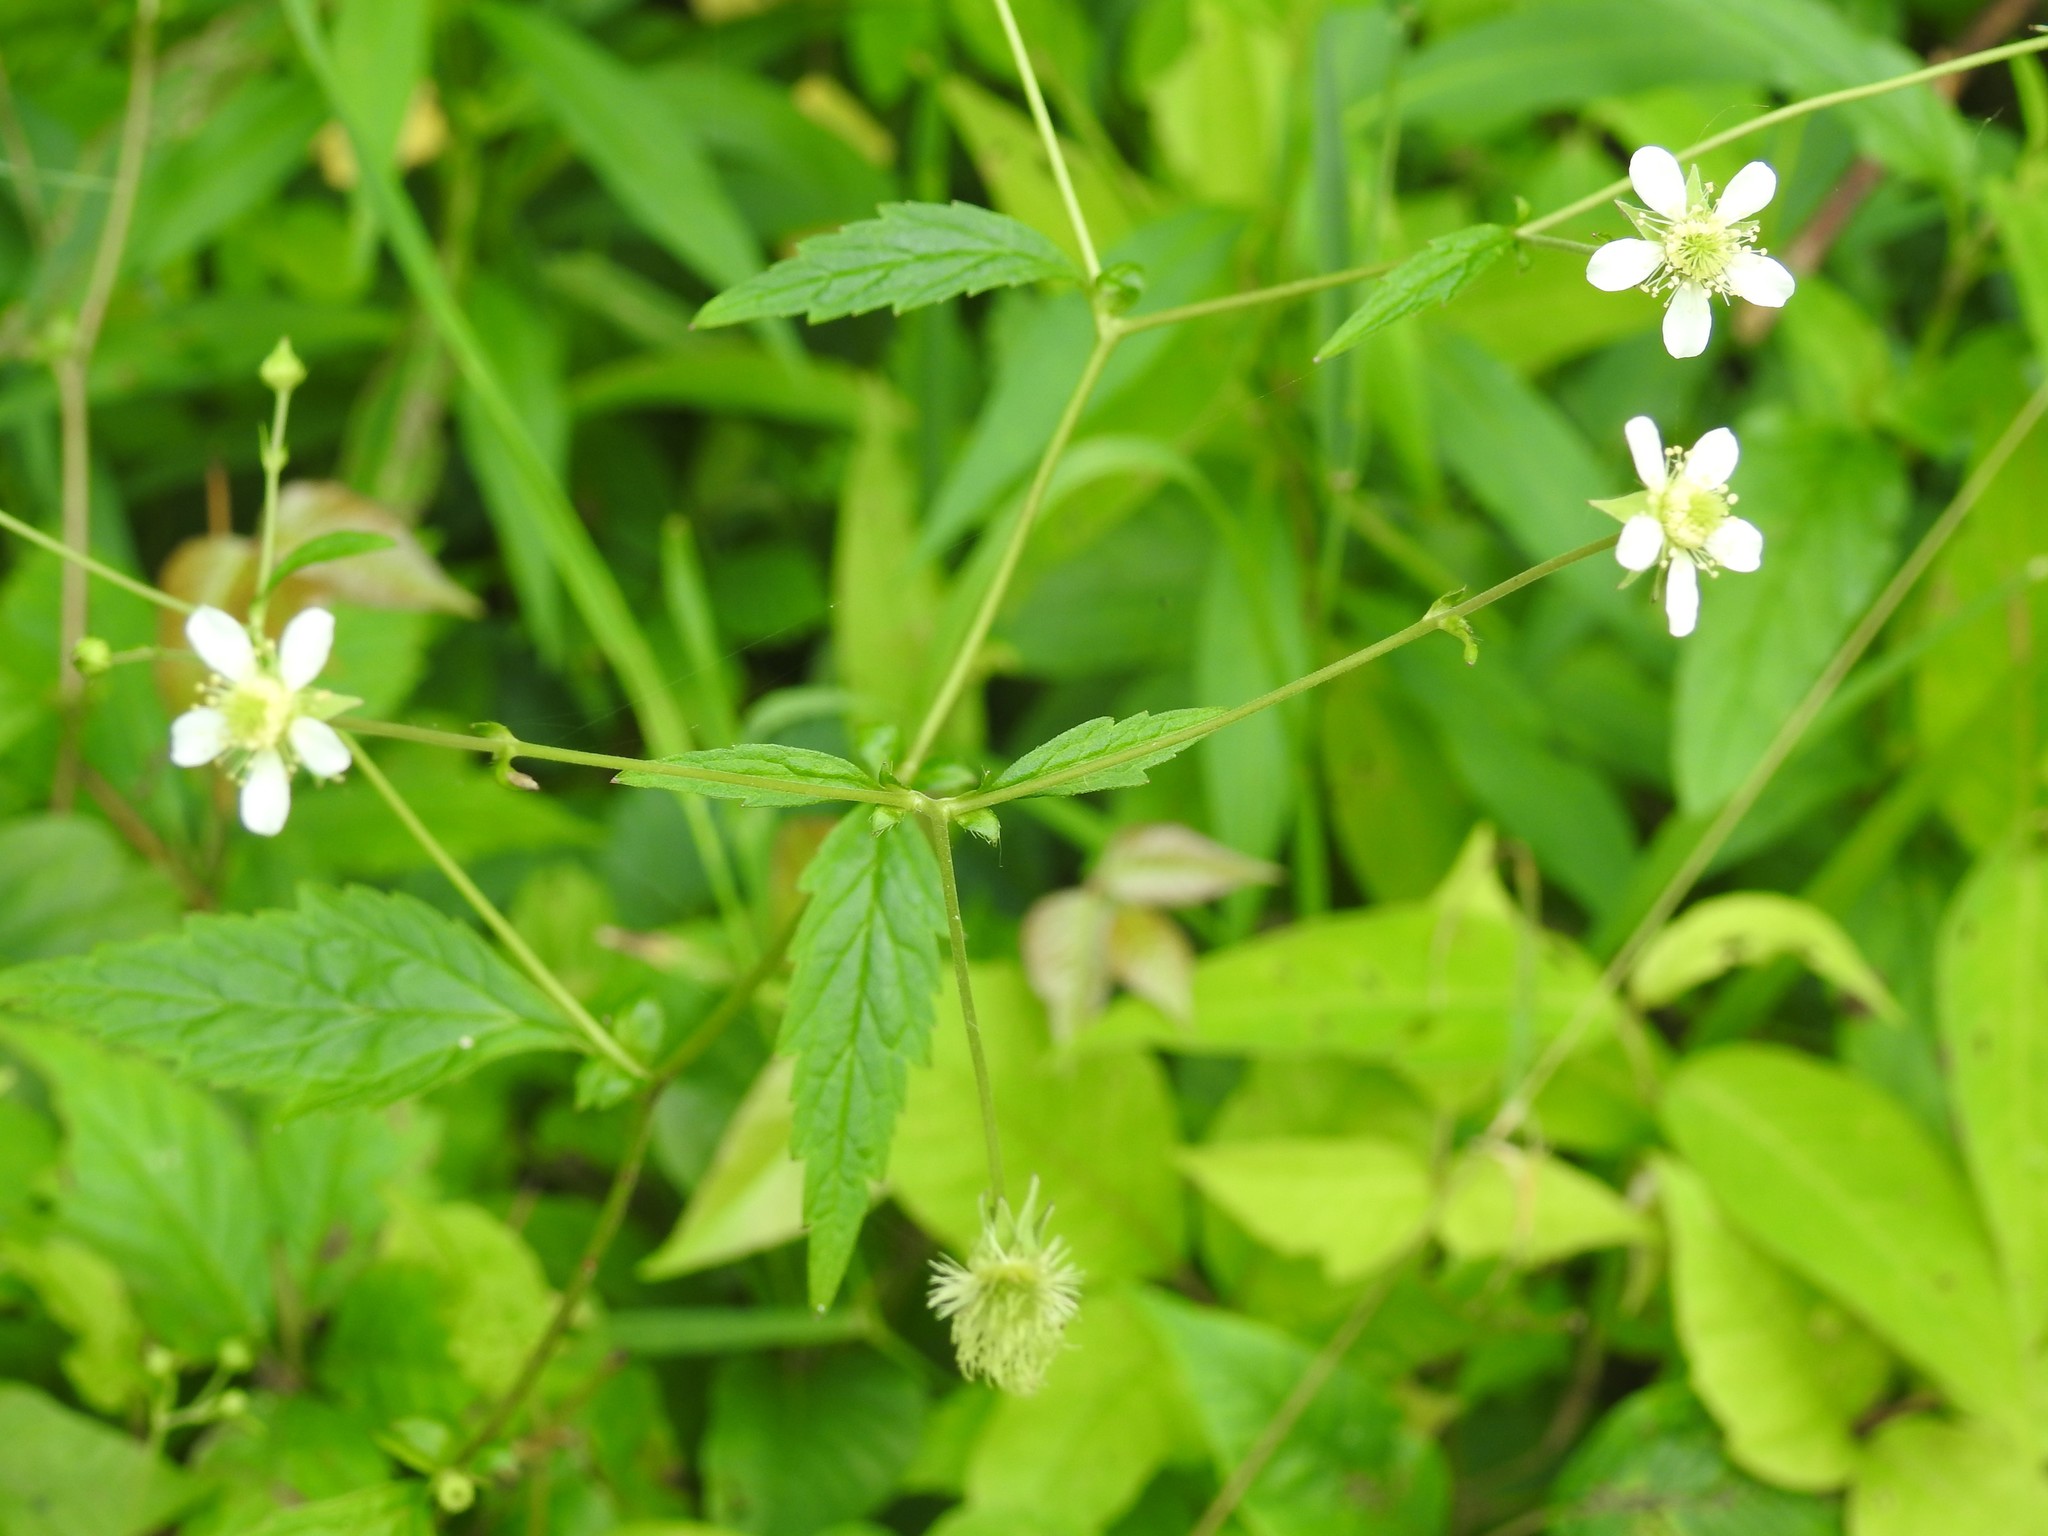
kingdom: Plantae
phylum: Tracheophyta
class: Magnoliopsida
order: Rosales
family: Rosaceae
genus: Geum
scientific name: Geum canadense
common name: White avens
